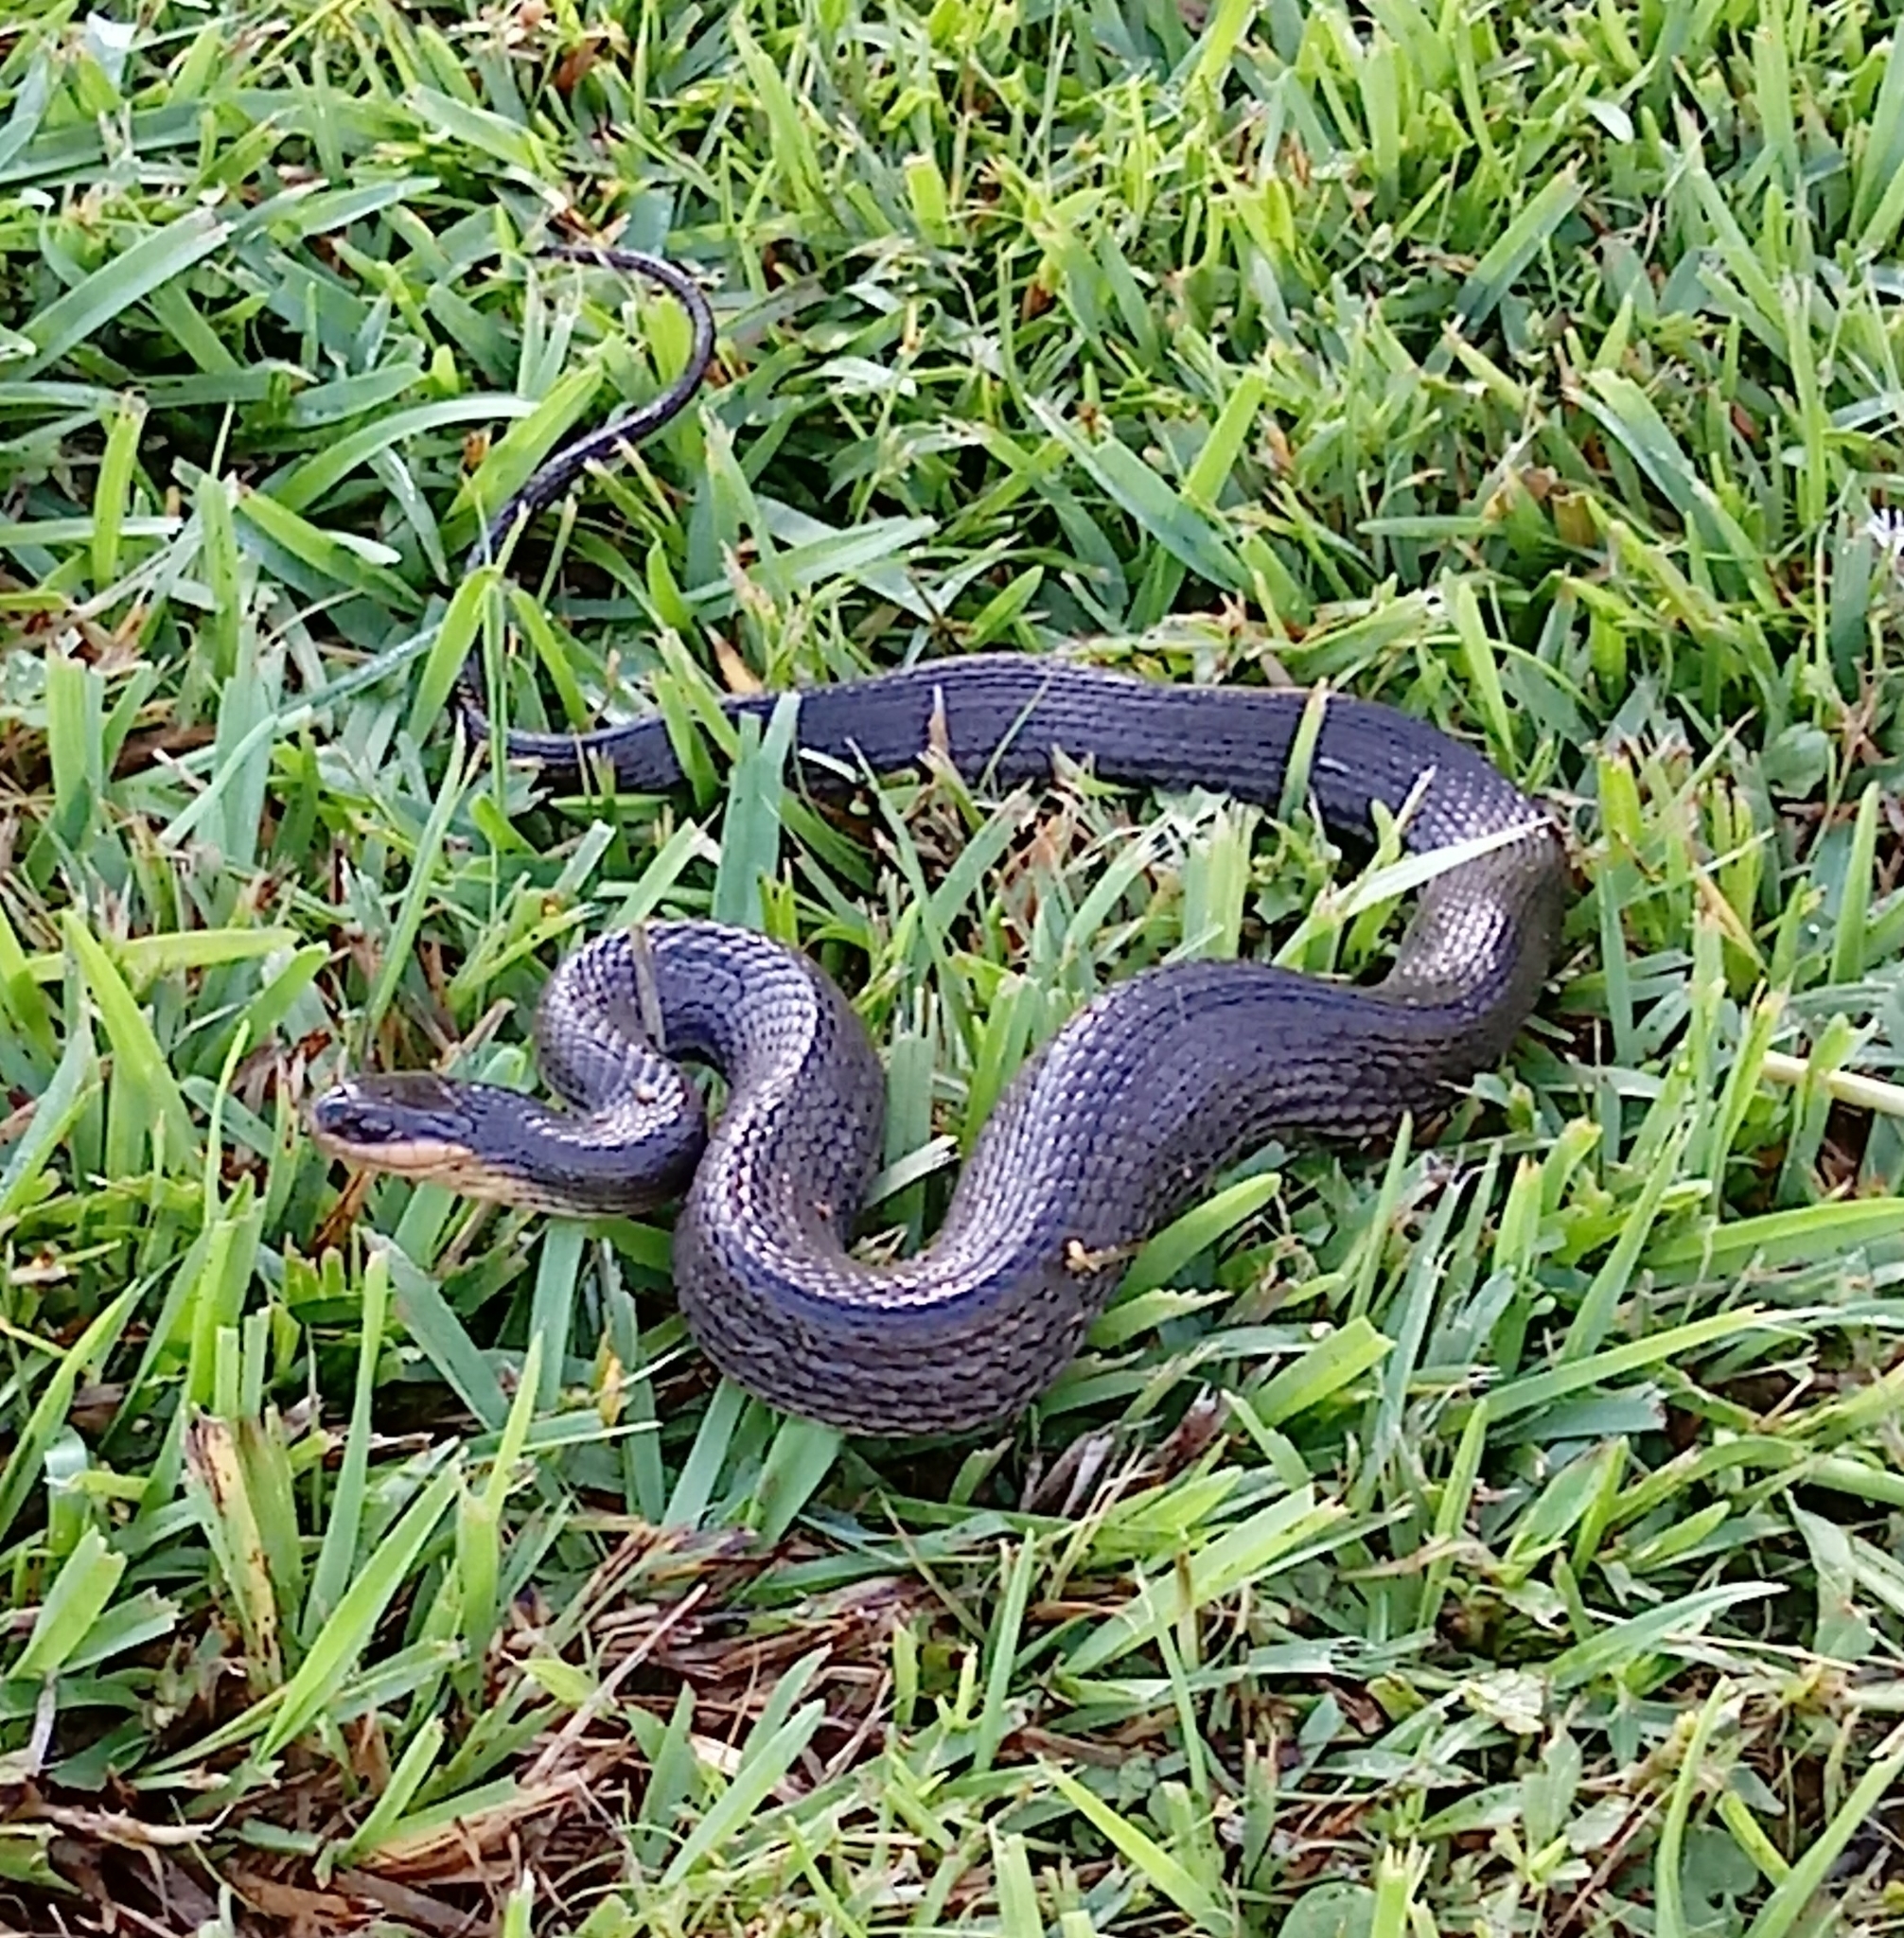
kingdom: Animalia
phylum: Chordata
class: Squamata
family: Colubridae
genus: Liodytes
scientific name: Liodytes rigida
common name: Crayfish snake
